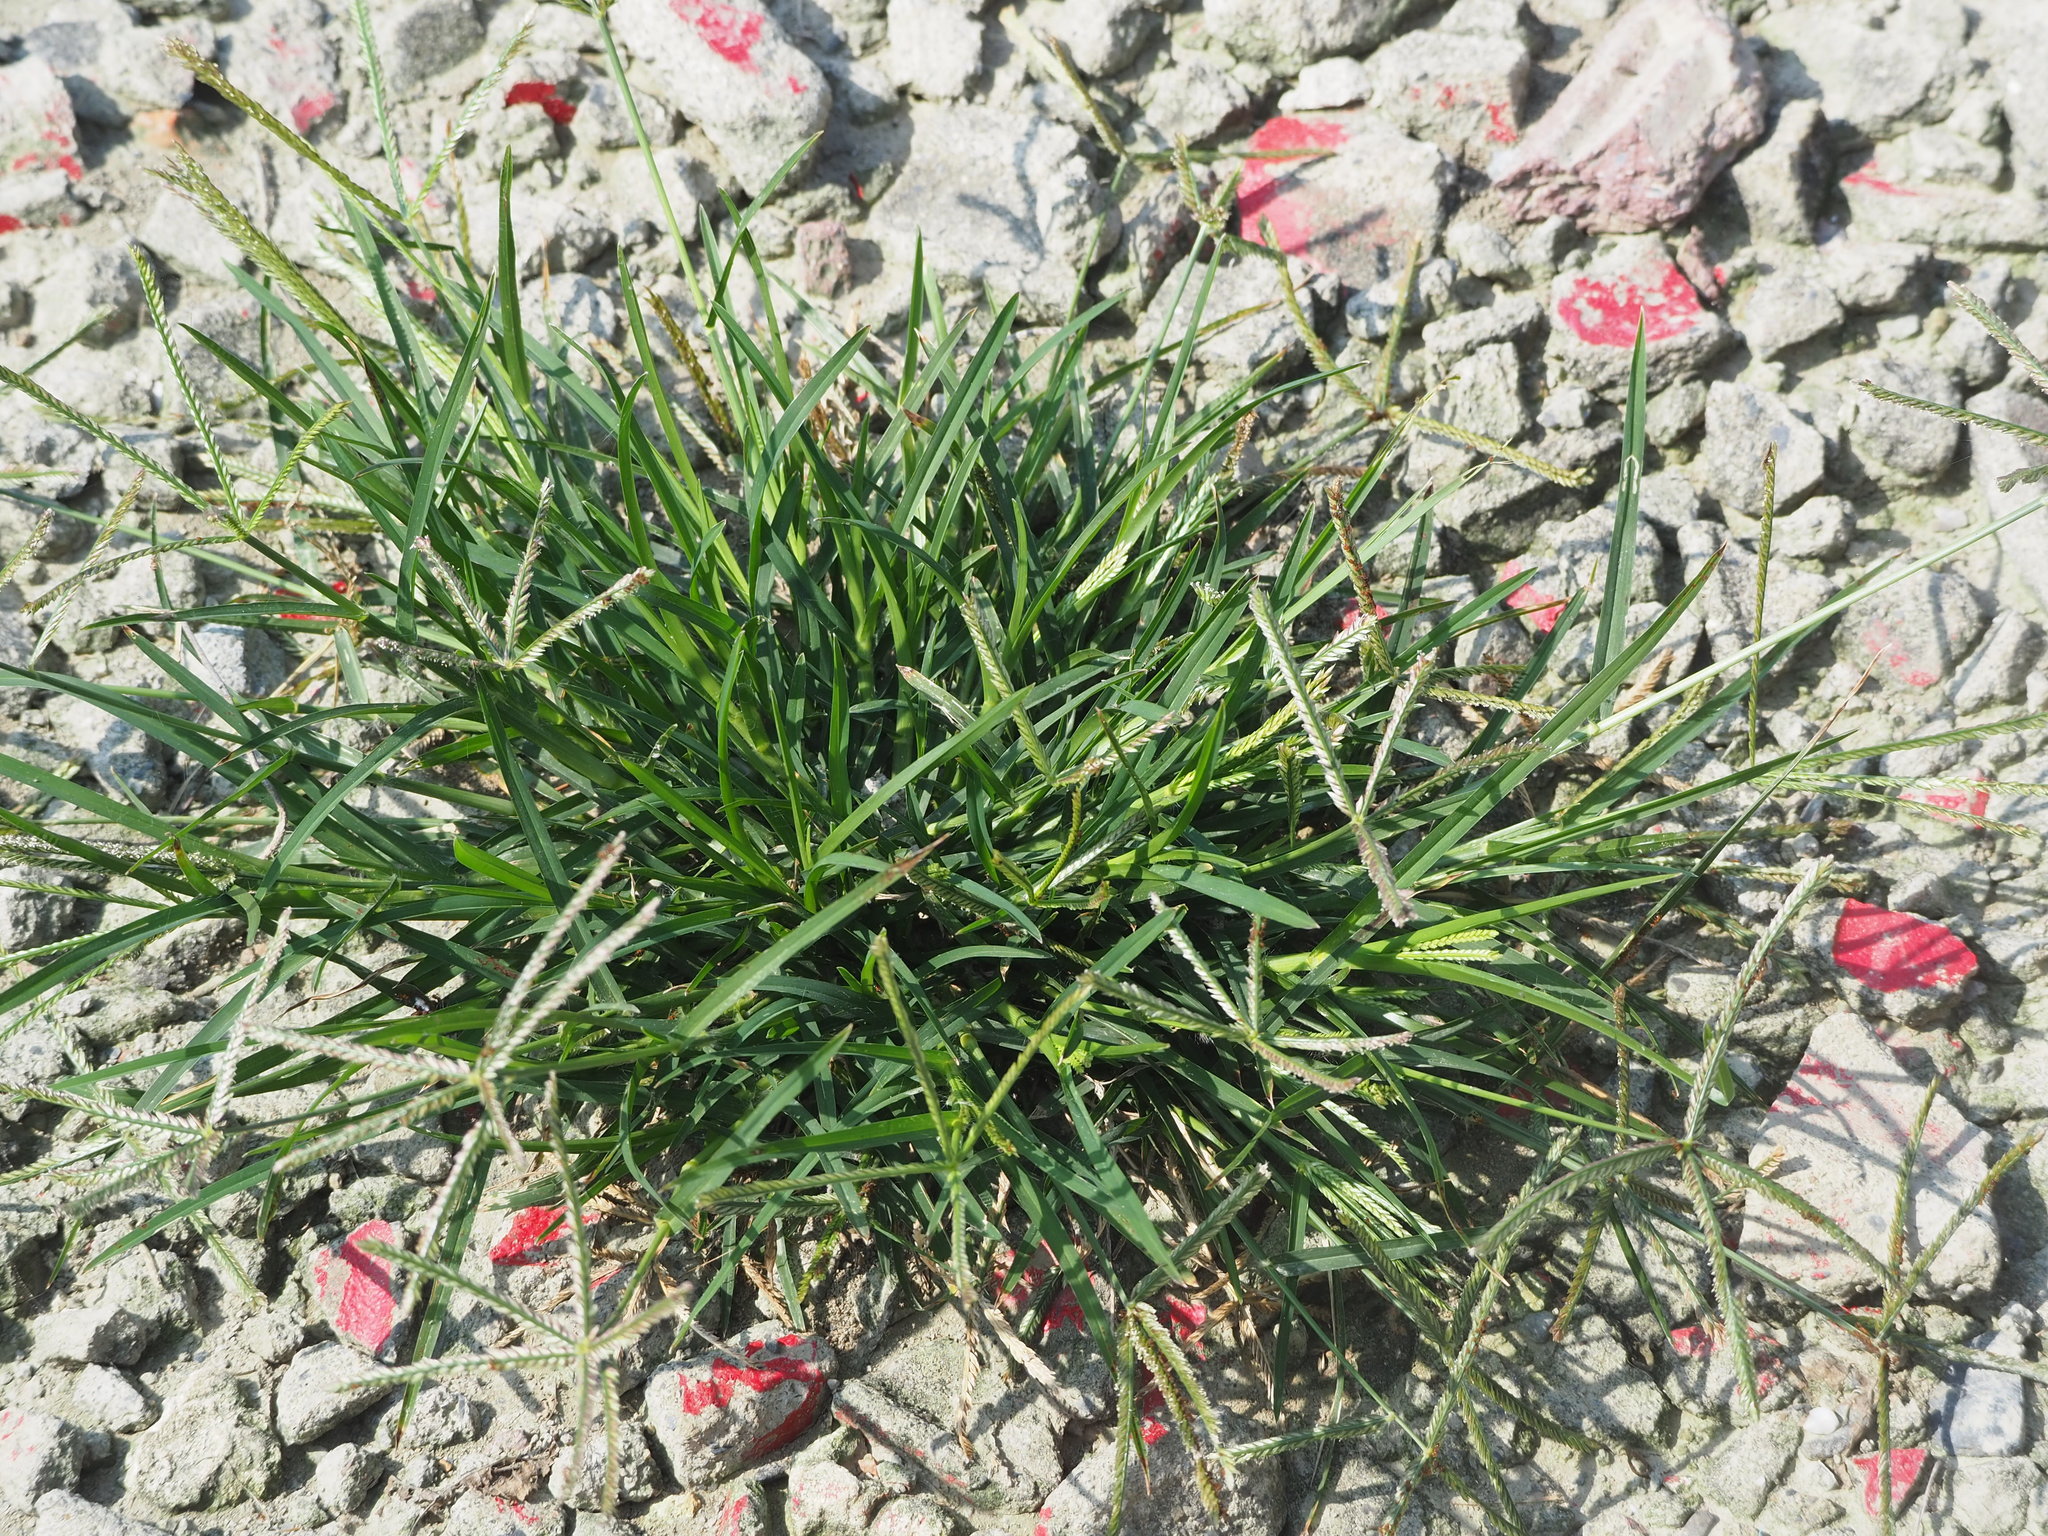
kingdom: Plantae
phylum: Tracheophyta
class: Liliopsida
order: Poales
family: Poaceae
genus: Eleusine
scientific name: Eleusine indica
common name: Yard-grass
